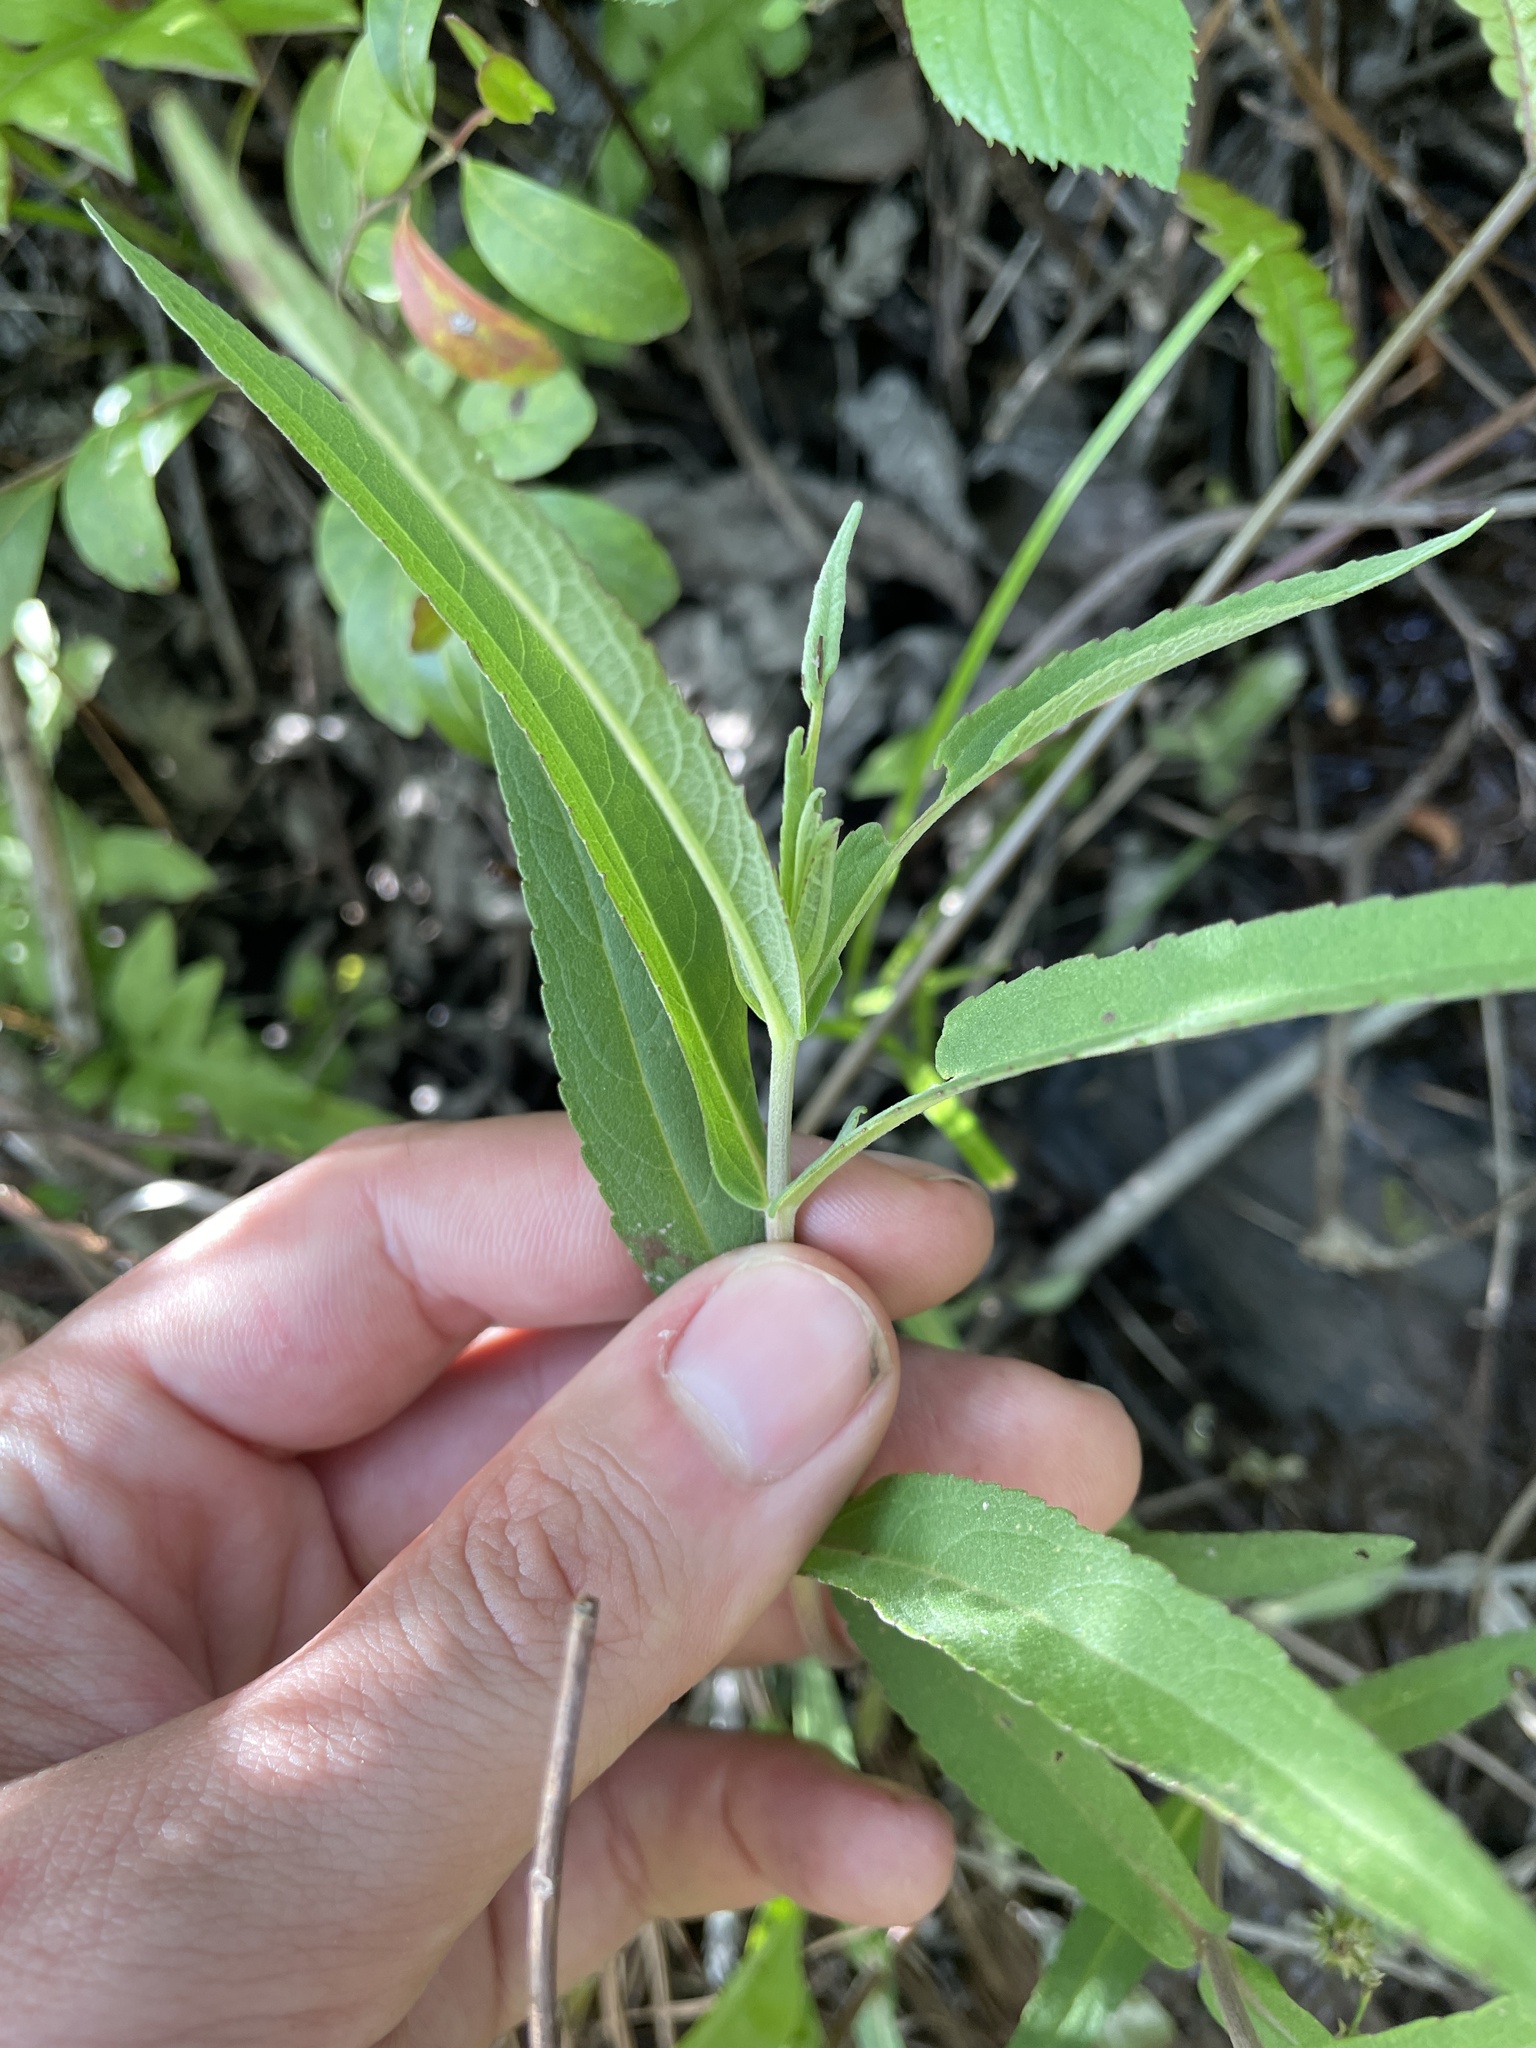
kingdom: Plantae
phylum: Tracheophyta
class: Magnoliopsida
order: Asterales
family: Asteraceae
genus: Eupatorium
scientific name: Eupatorium resinosum
